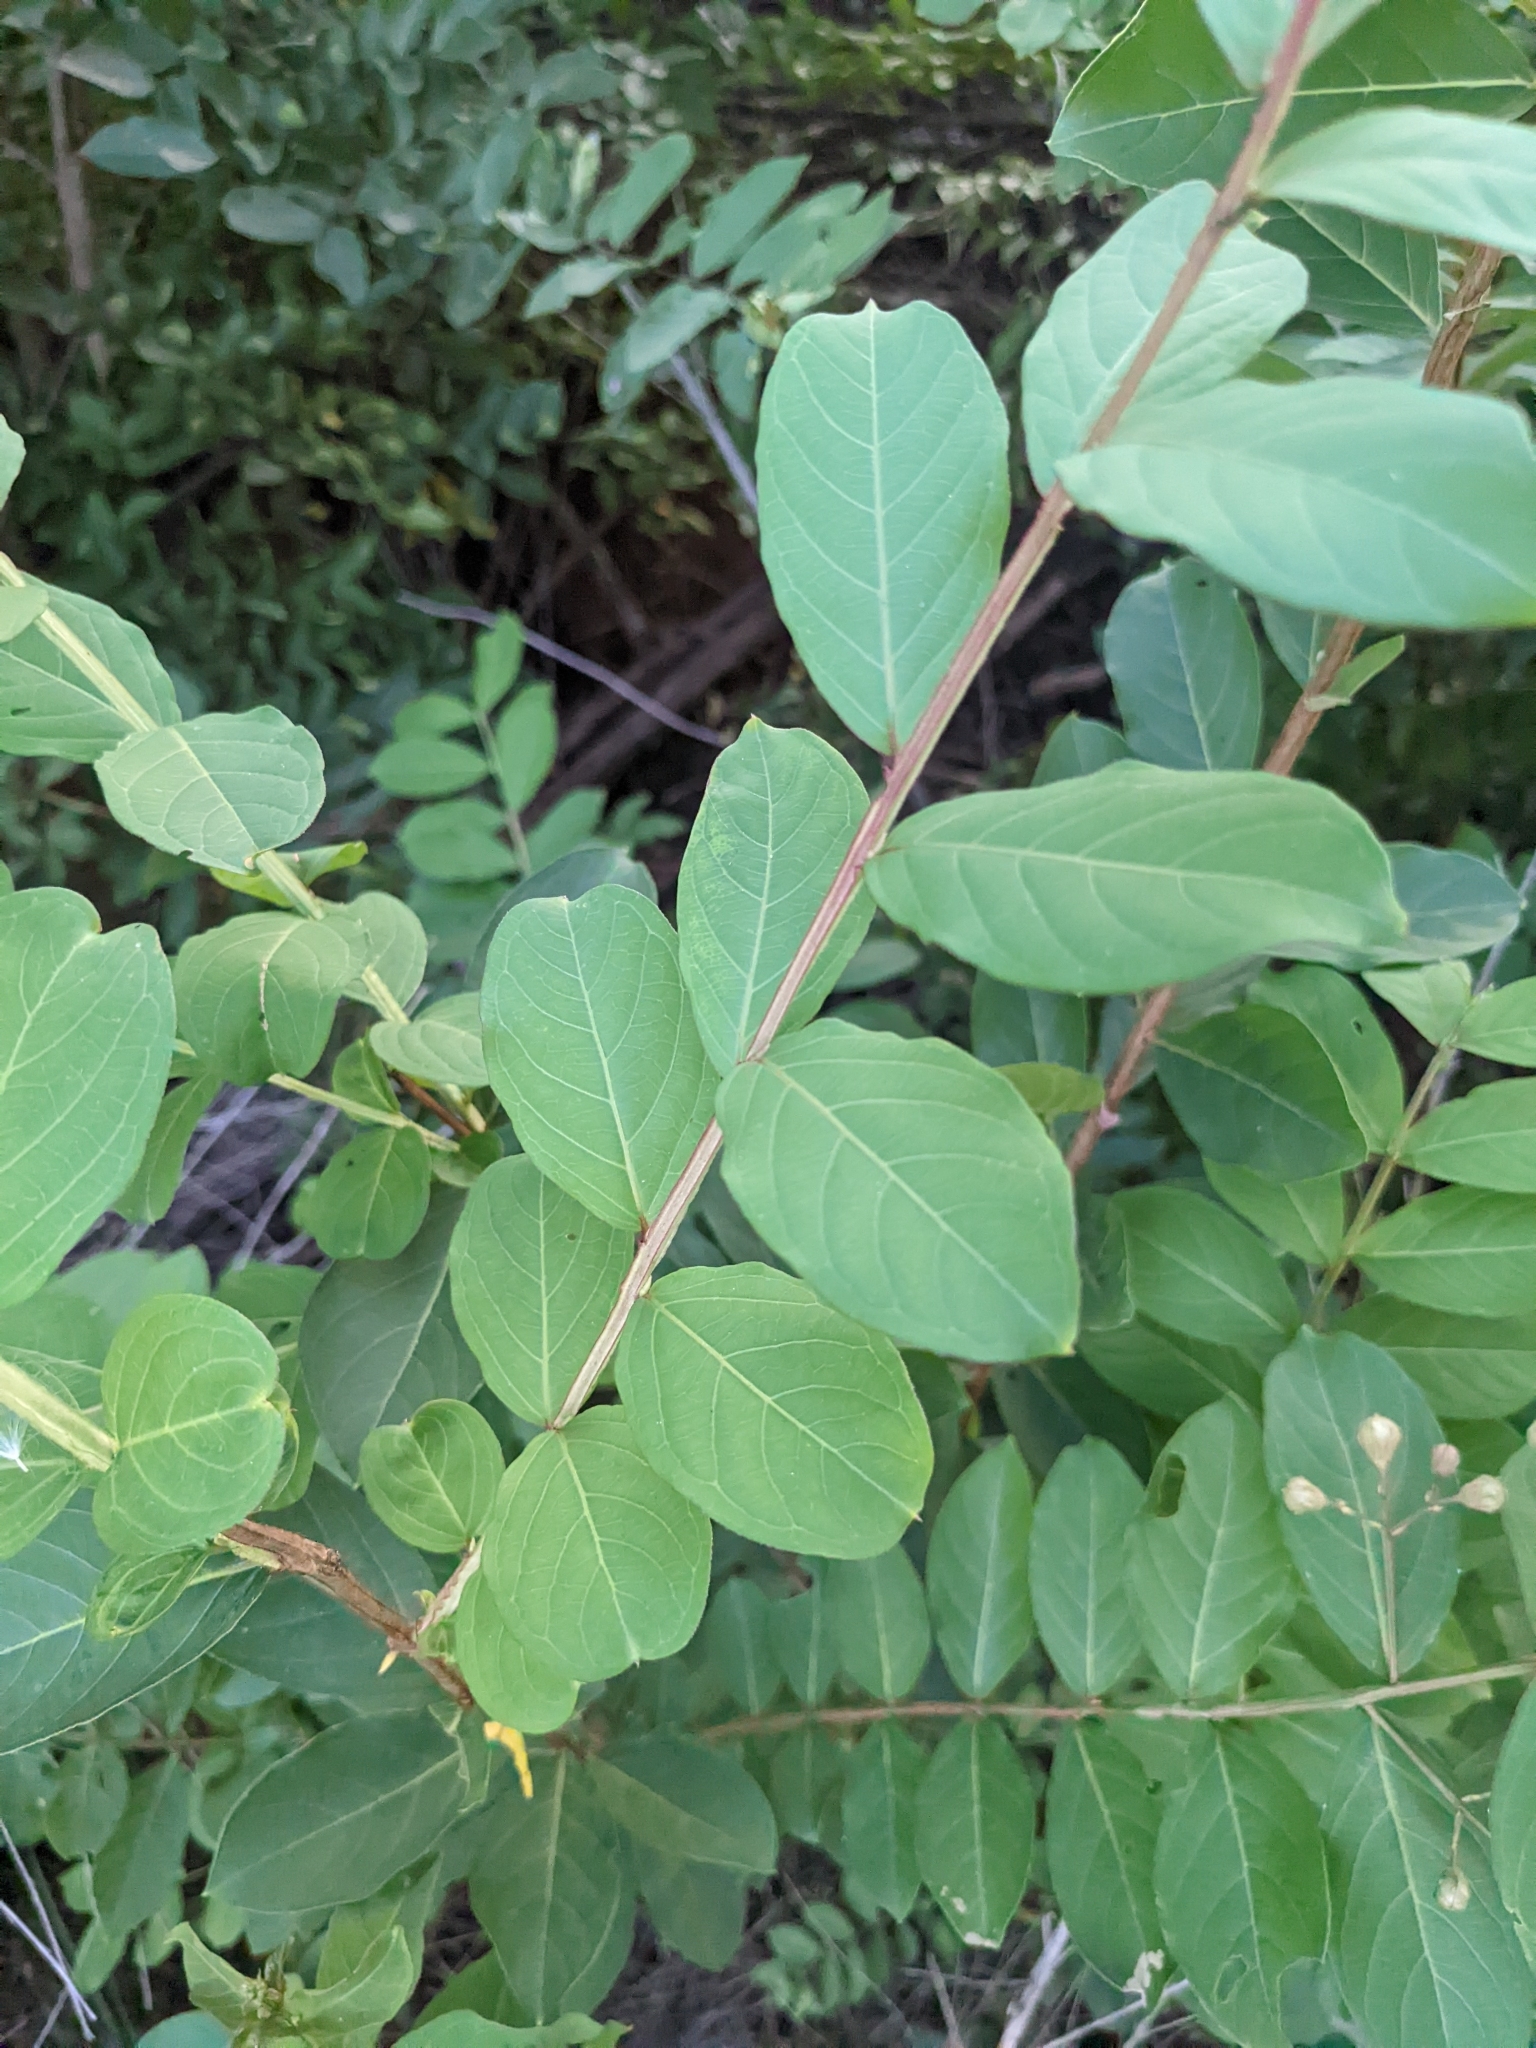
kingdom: Protozoa
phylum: Mycetozoa
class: Myxomycetes
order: Stemonitidales
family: Stemonitidaceae
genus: Stemonitis
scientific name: Stemonitis splendens
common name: Chocolate tube slime
